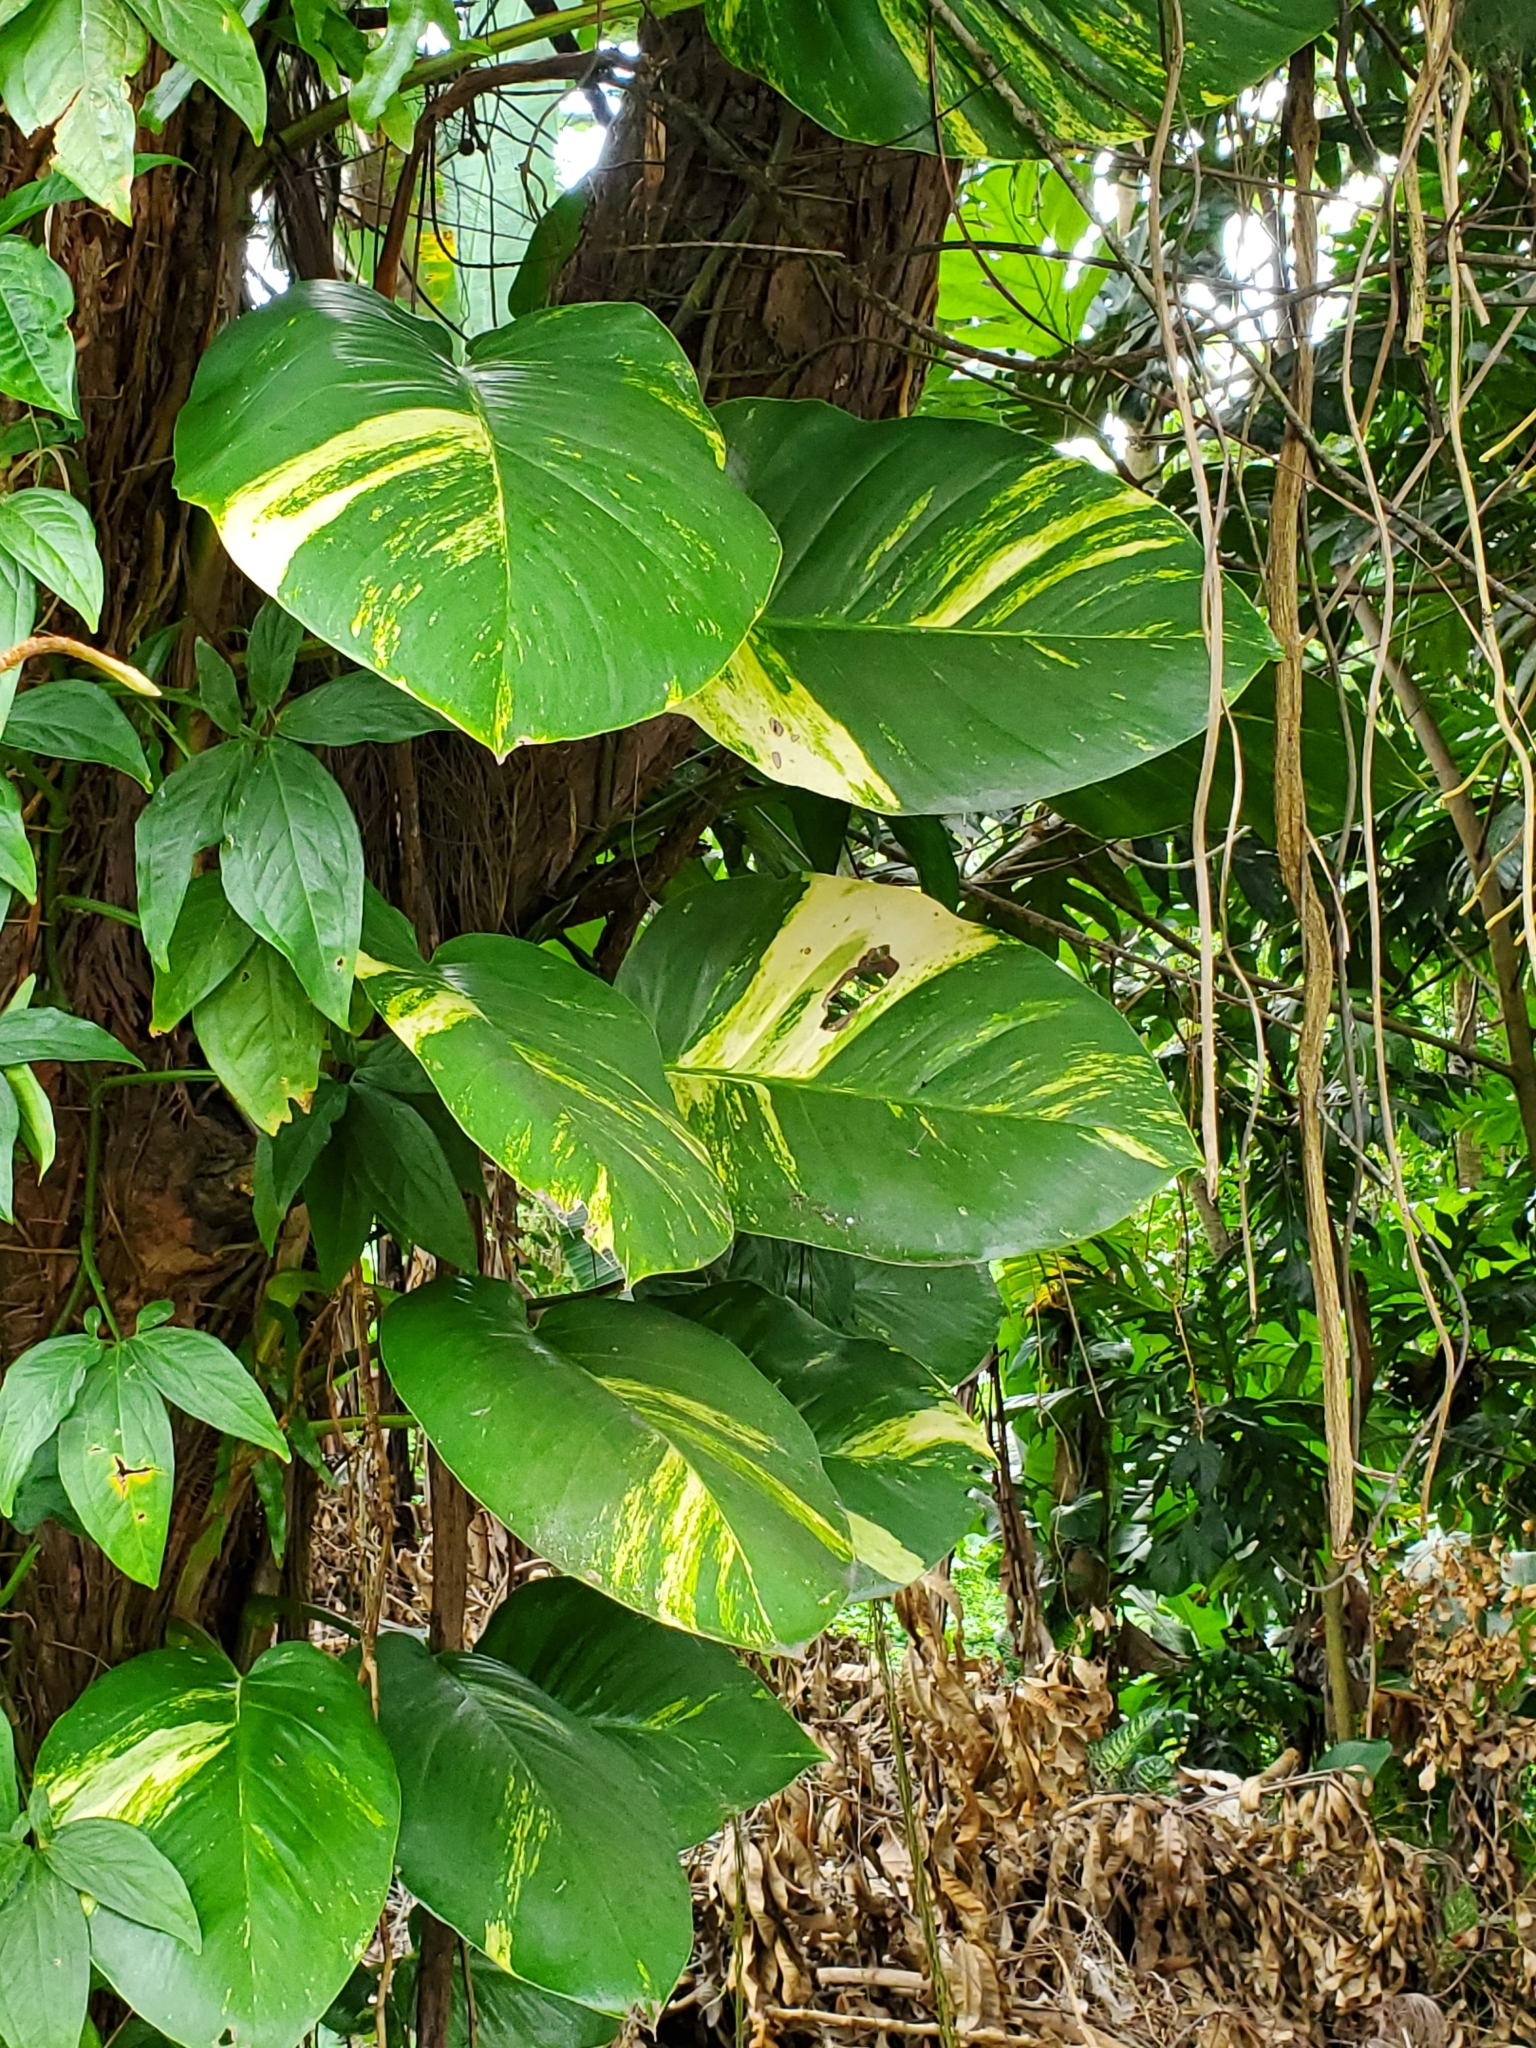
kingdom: Plantae
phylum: Tracheophyta
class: Liliopsida
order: Alismatales
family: Araceae
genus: Epipremnum
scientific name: Epipremnum aureum
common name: Golden hunter's-robe
